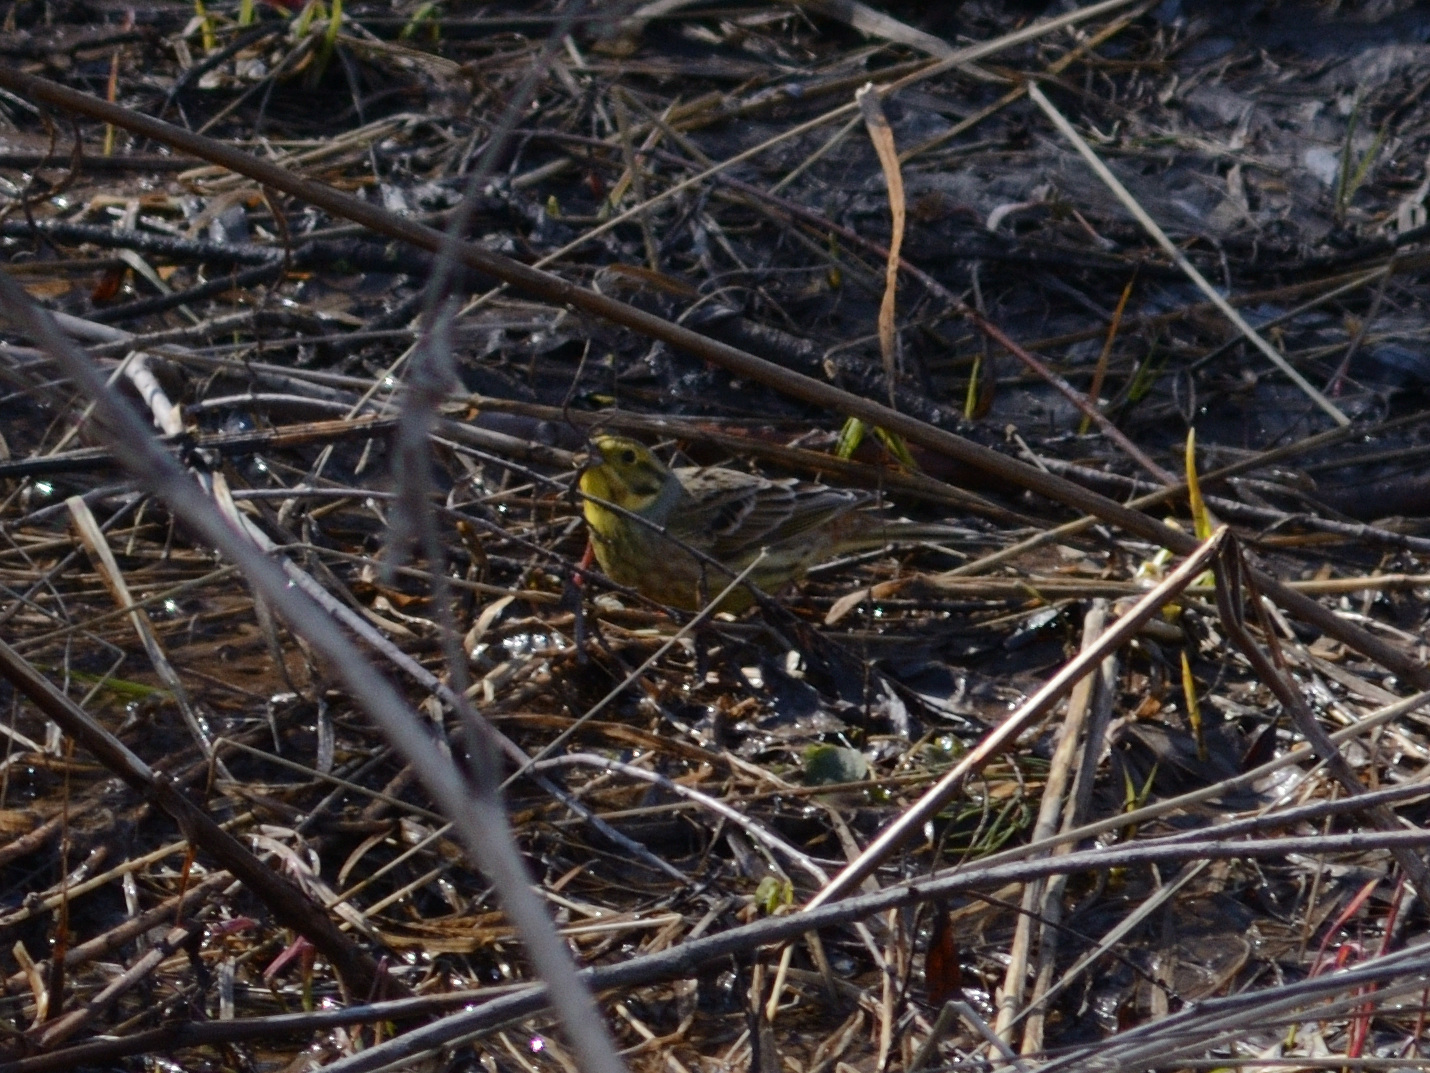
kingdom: Animalia
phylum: Chordata
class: Aves
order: Passeriformes
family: Emberizidae
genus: Emberiza
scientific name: Emberiza citrinella
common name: Yellowhammer
